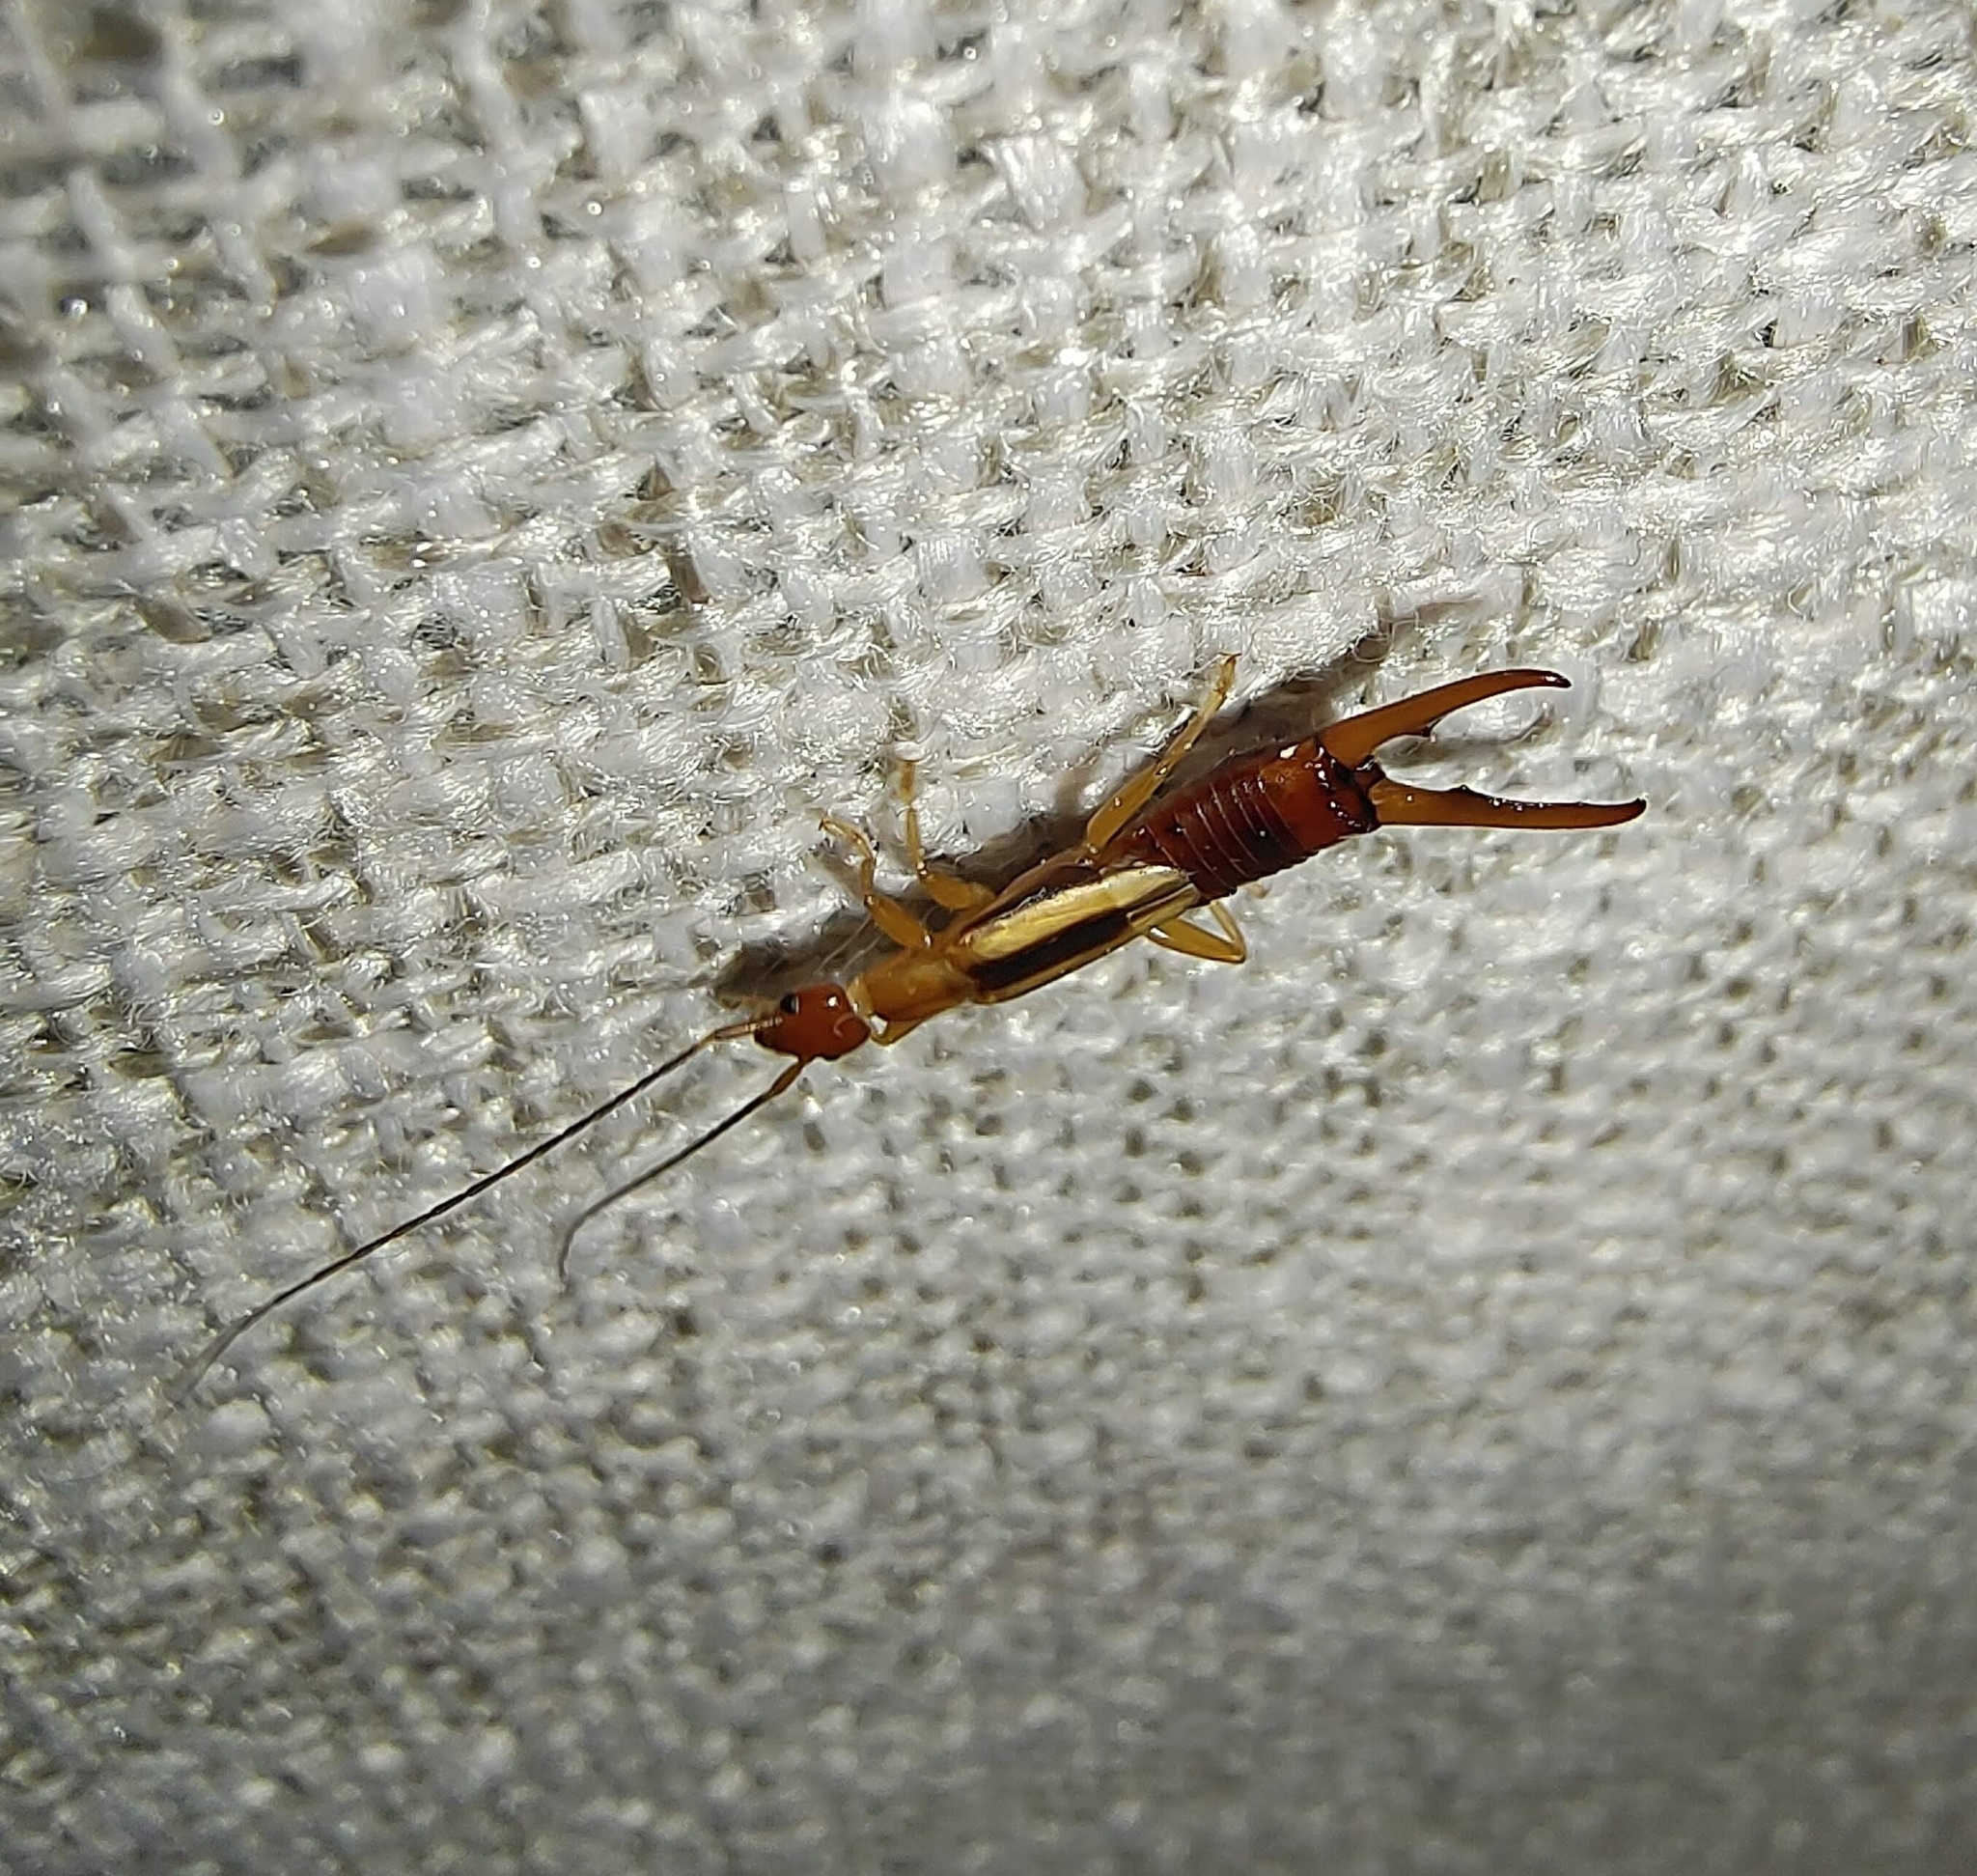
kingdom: Animalia
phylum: Arthropoda
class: Insecta
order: Dermaptera
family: Chelisochidae
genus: Proreus
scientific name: Proreus simulans
